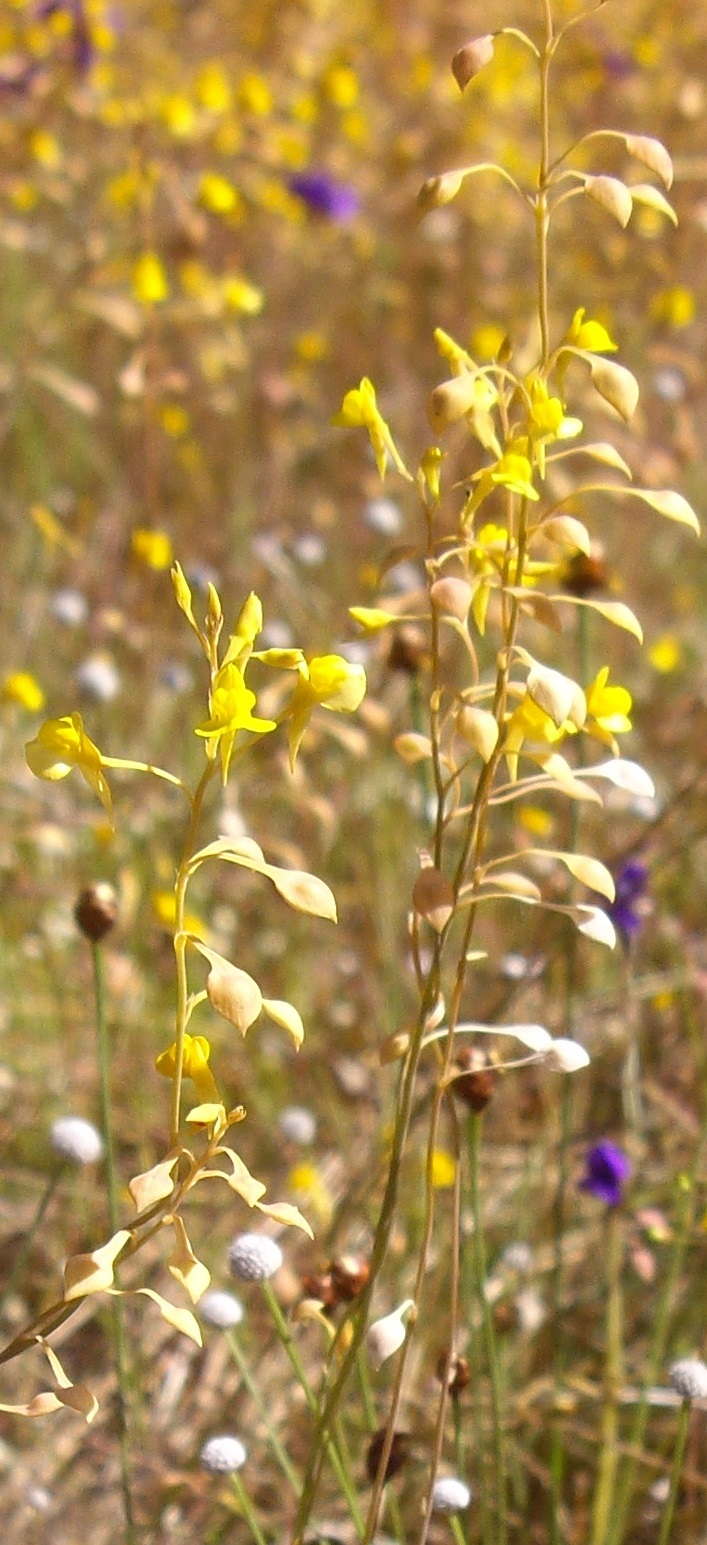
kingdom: Plantae
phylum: Tracheophyta
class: Magnoliopsida
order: Lamiales
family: Lentibulariaceae
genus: Utricularia
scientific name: Utricularia odorata
